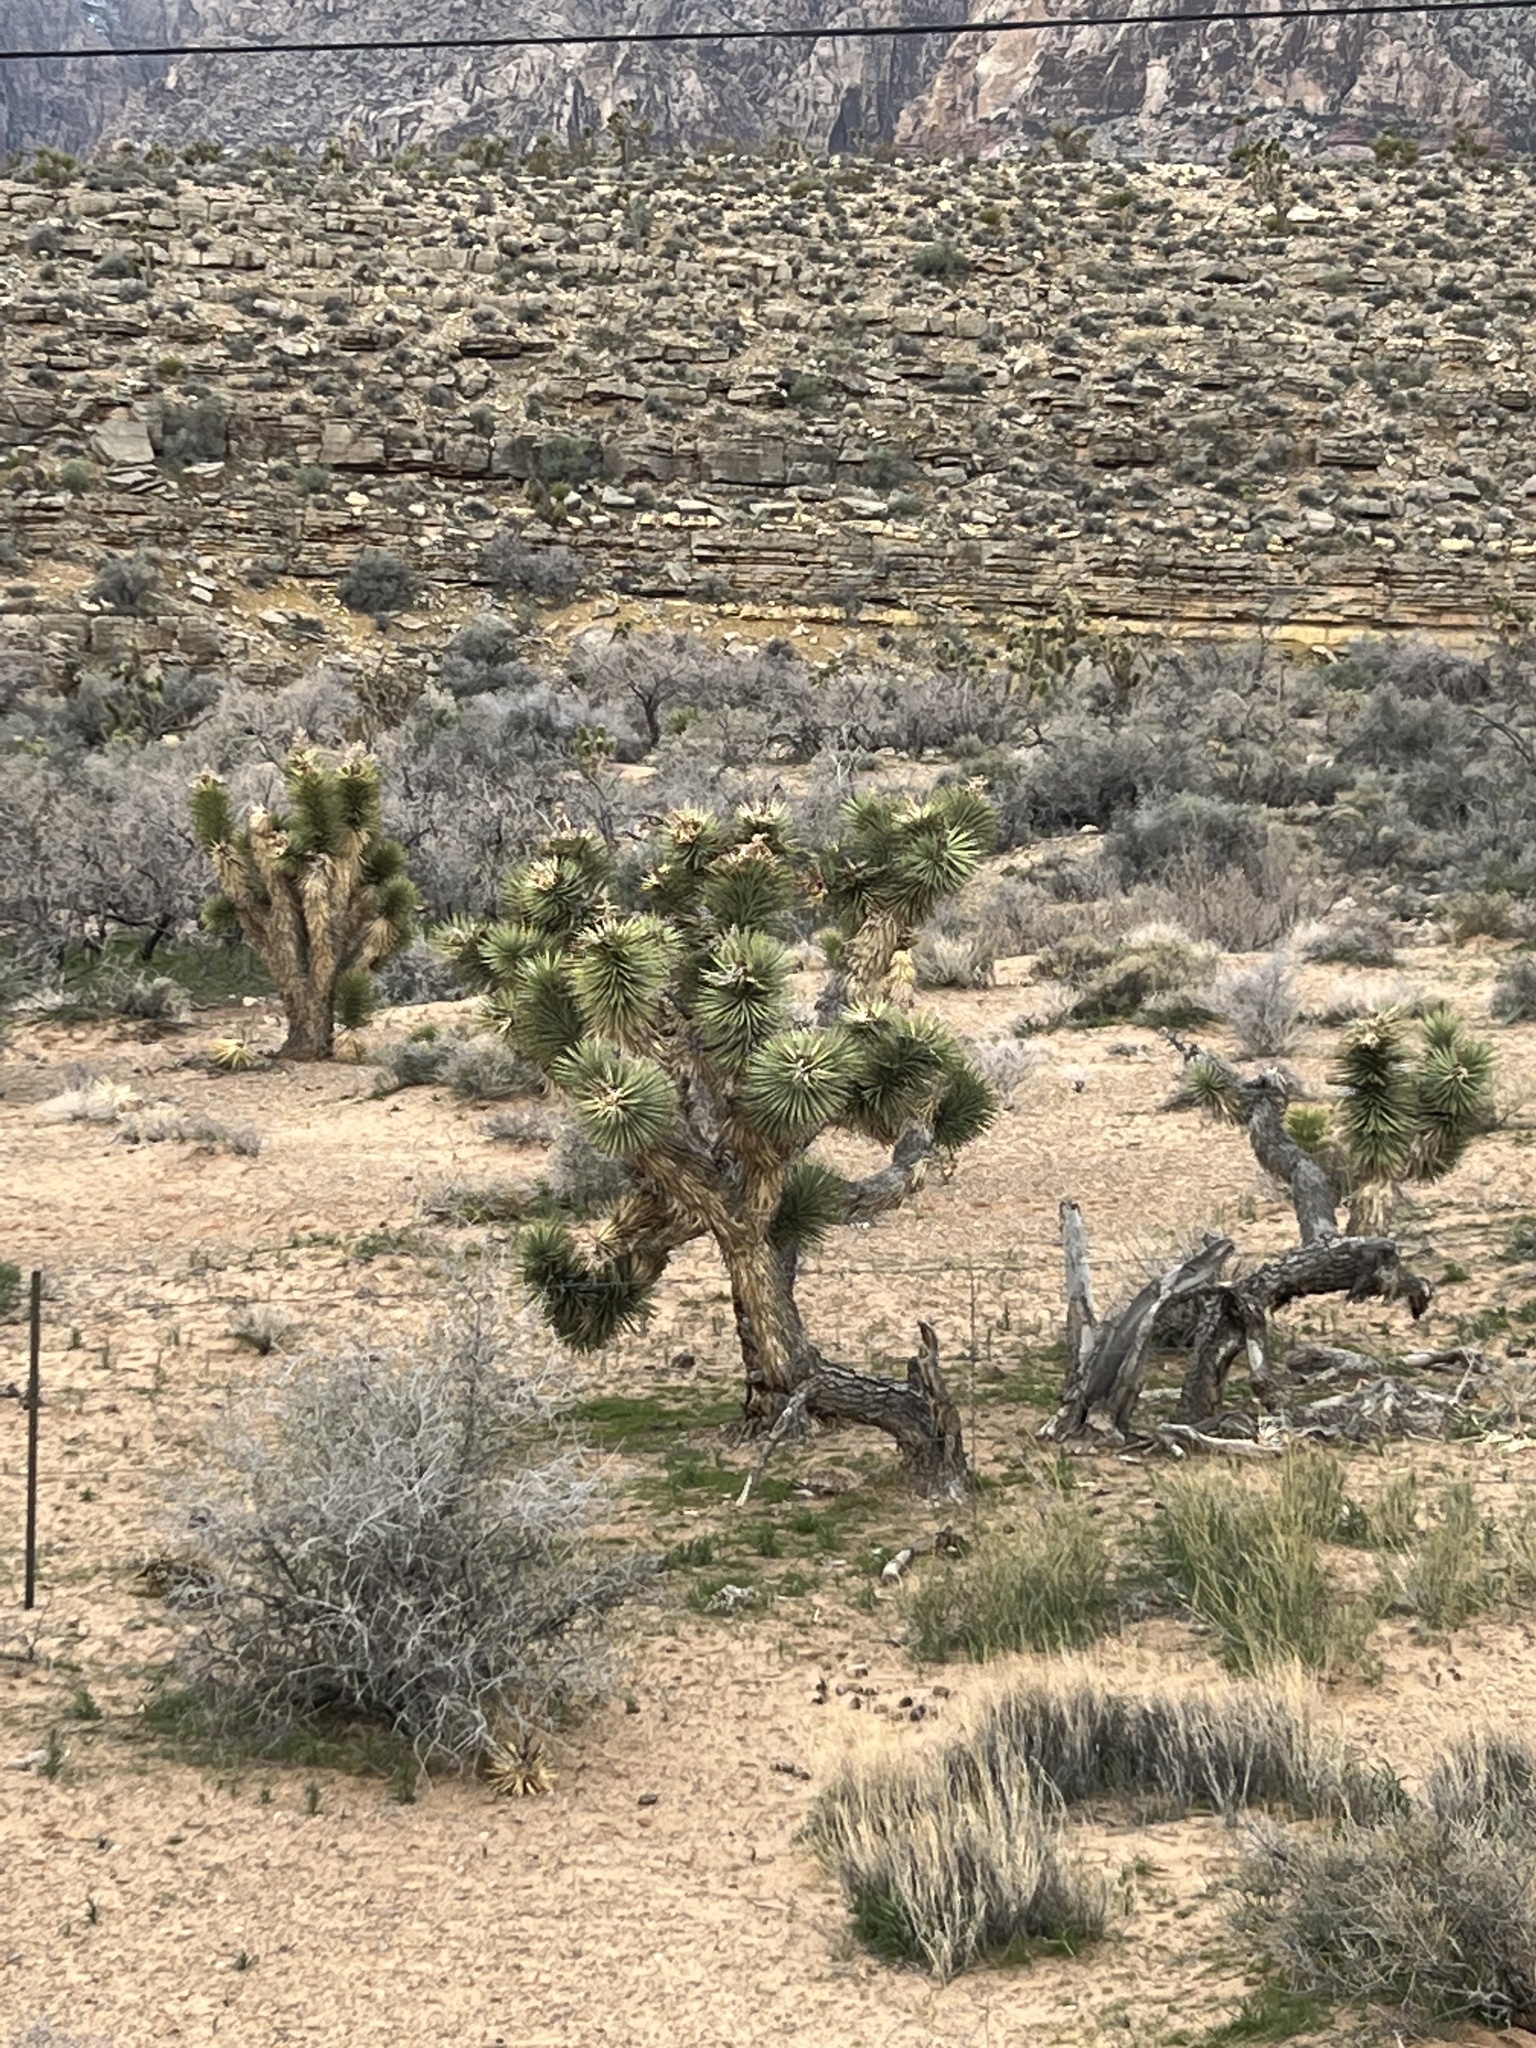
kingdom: Plantae
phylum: Tracheophyta
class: Liliopsida
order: Asparagales
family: Asparagaceae
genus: Yucca
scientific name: Yucca brevifolia
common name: Joshua tree
